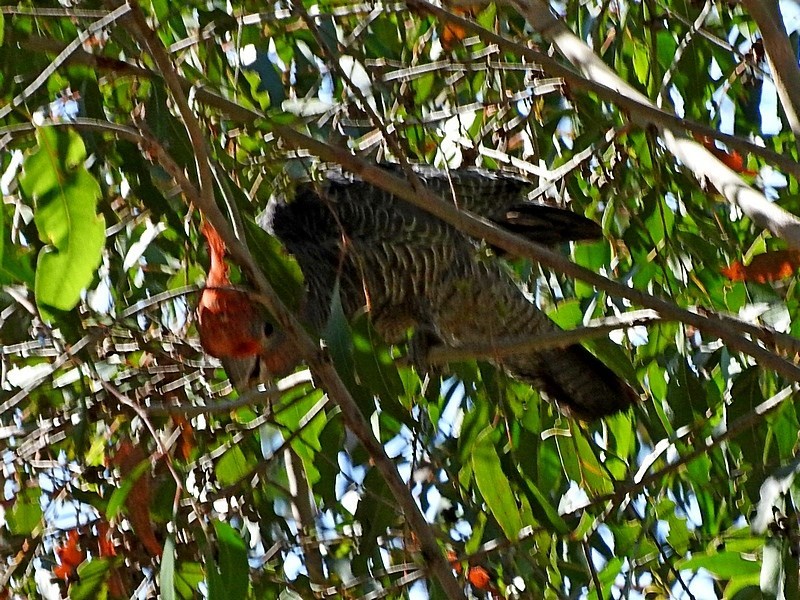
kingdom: Animalia
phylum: Chordata
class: Aves
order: Psittaciformes
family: Psittacidae
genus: Callocephalon
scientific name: Callocephalon fimbriatum
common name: Gang-gang cockatoo
